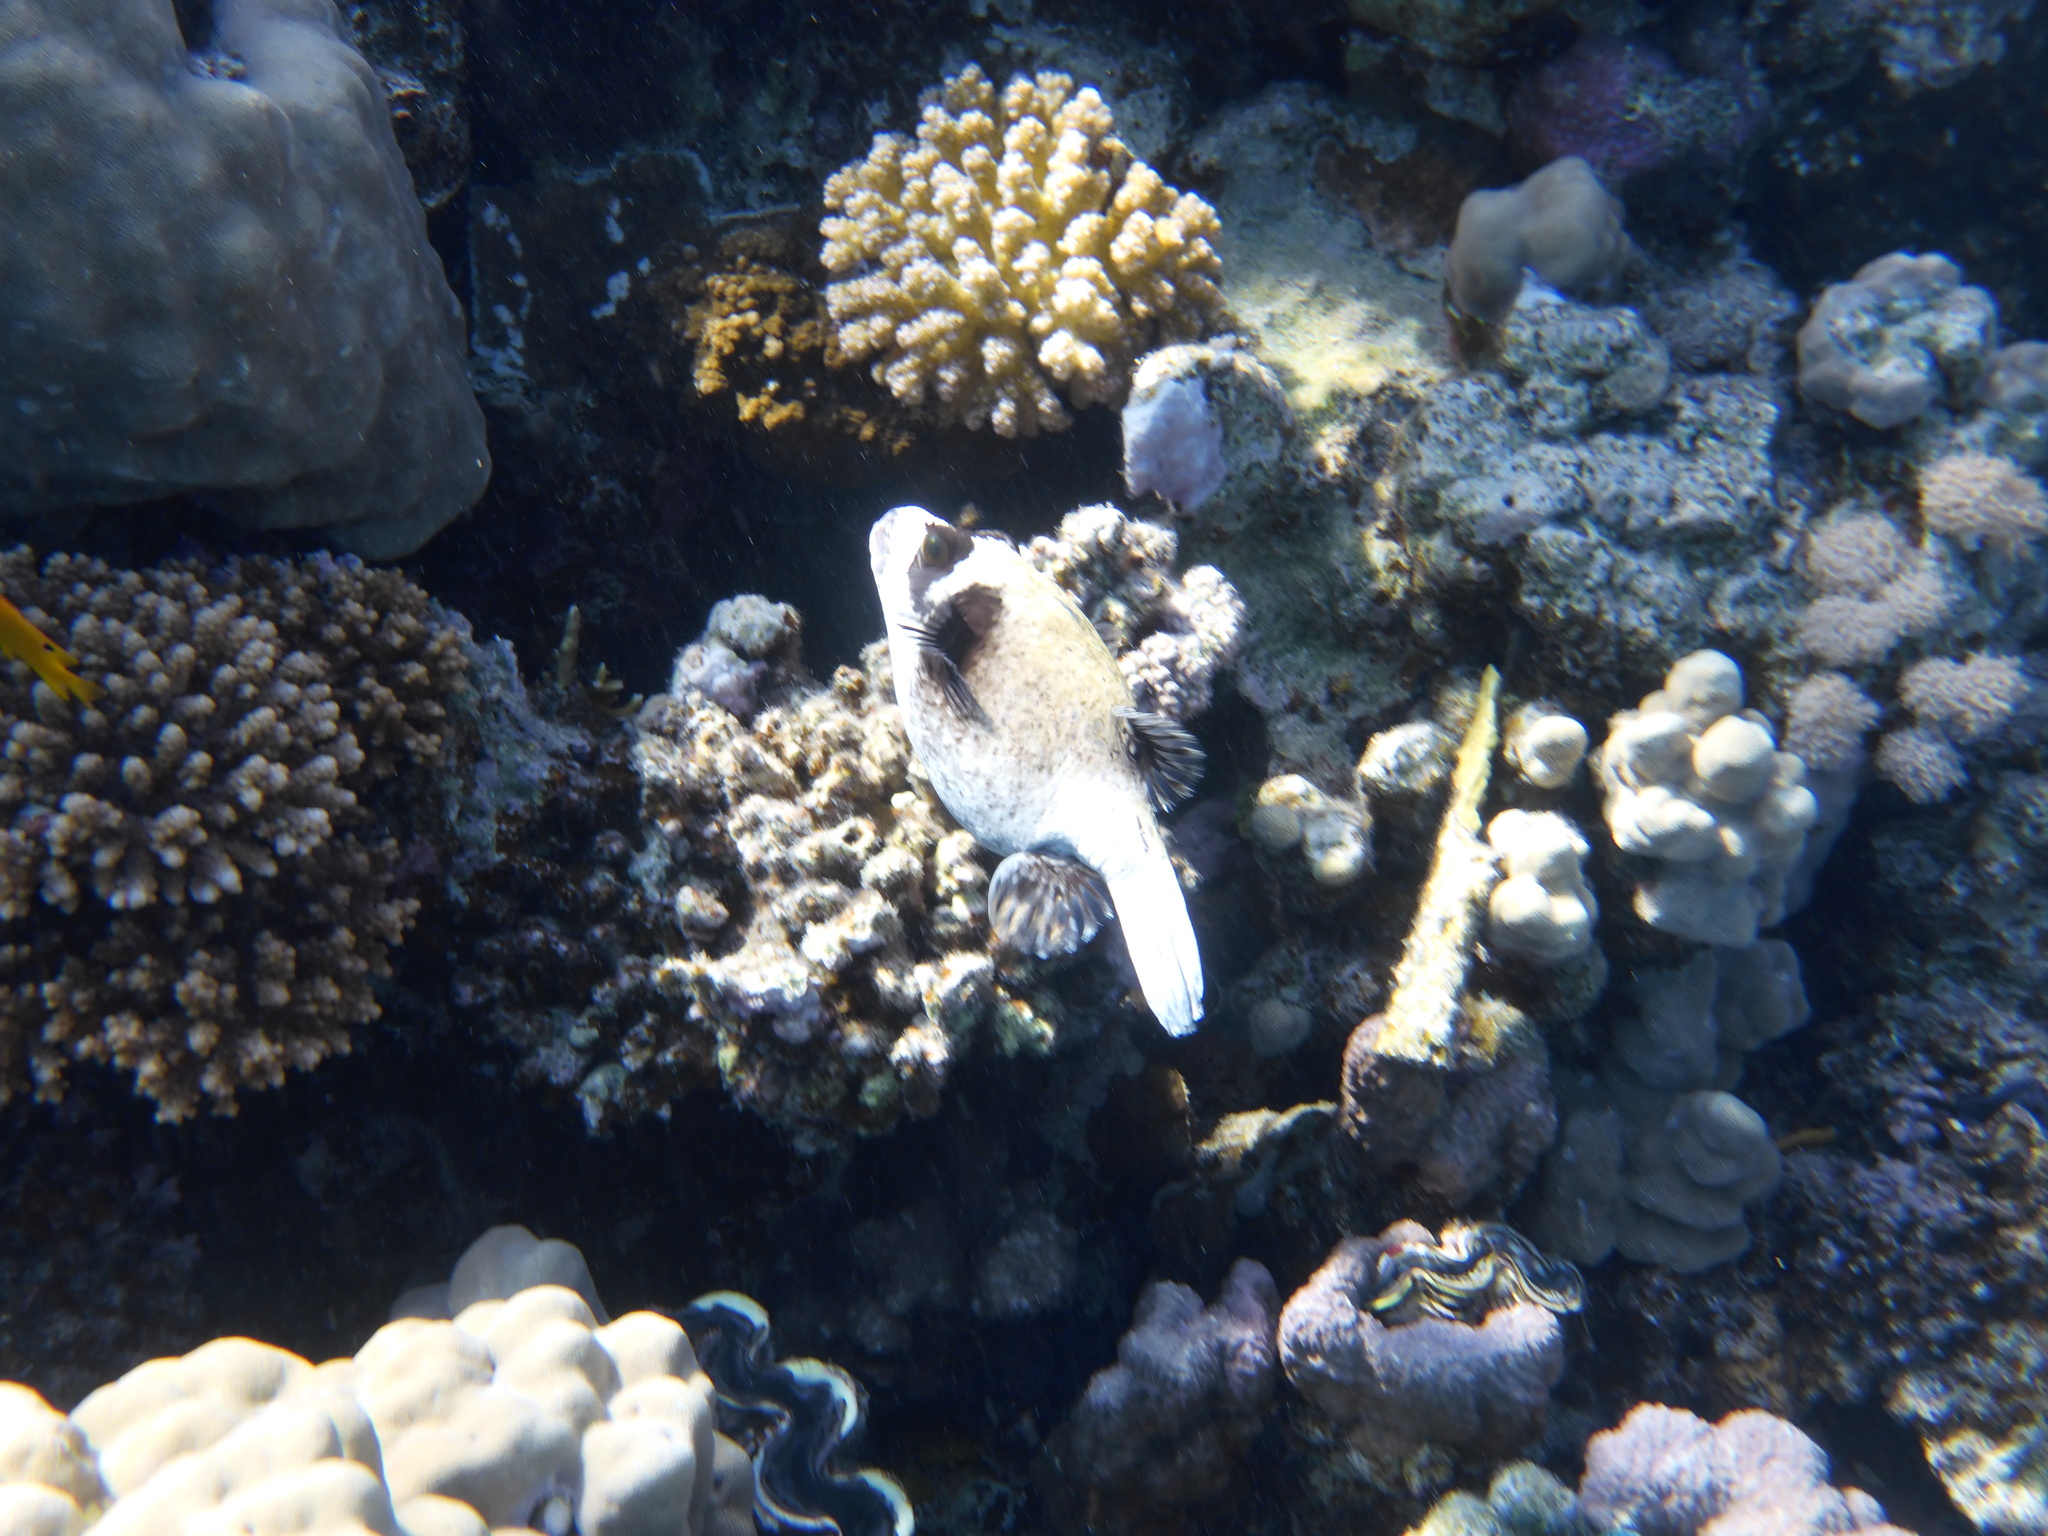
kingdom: Animalia
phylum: Chordata
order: Tetraodontiformes
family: Tetraodontidae
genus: Arothron
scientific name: Arothron diadematus
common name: Masked puffer
